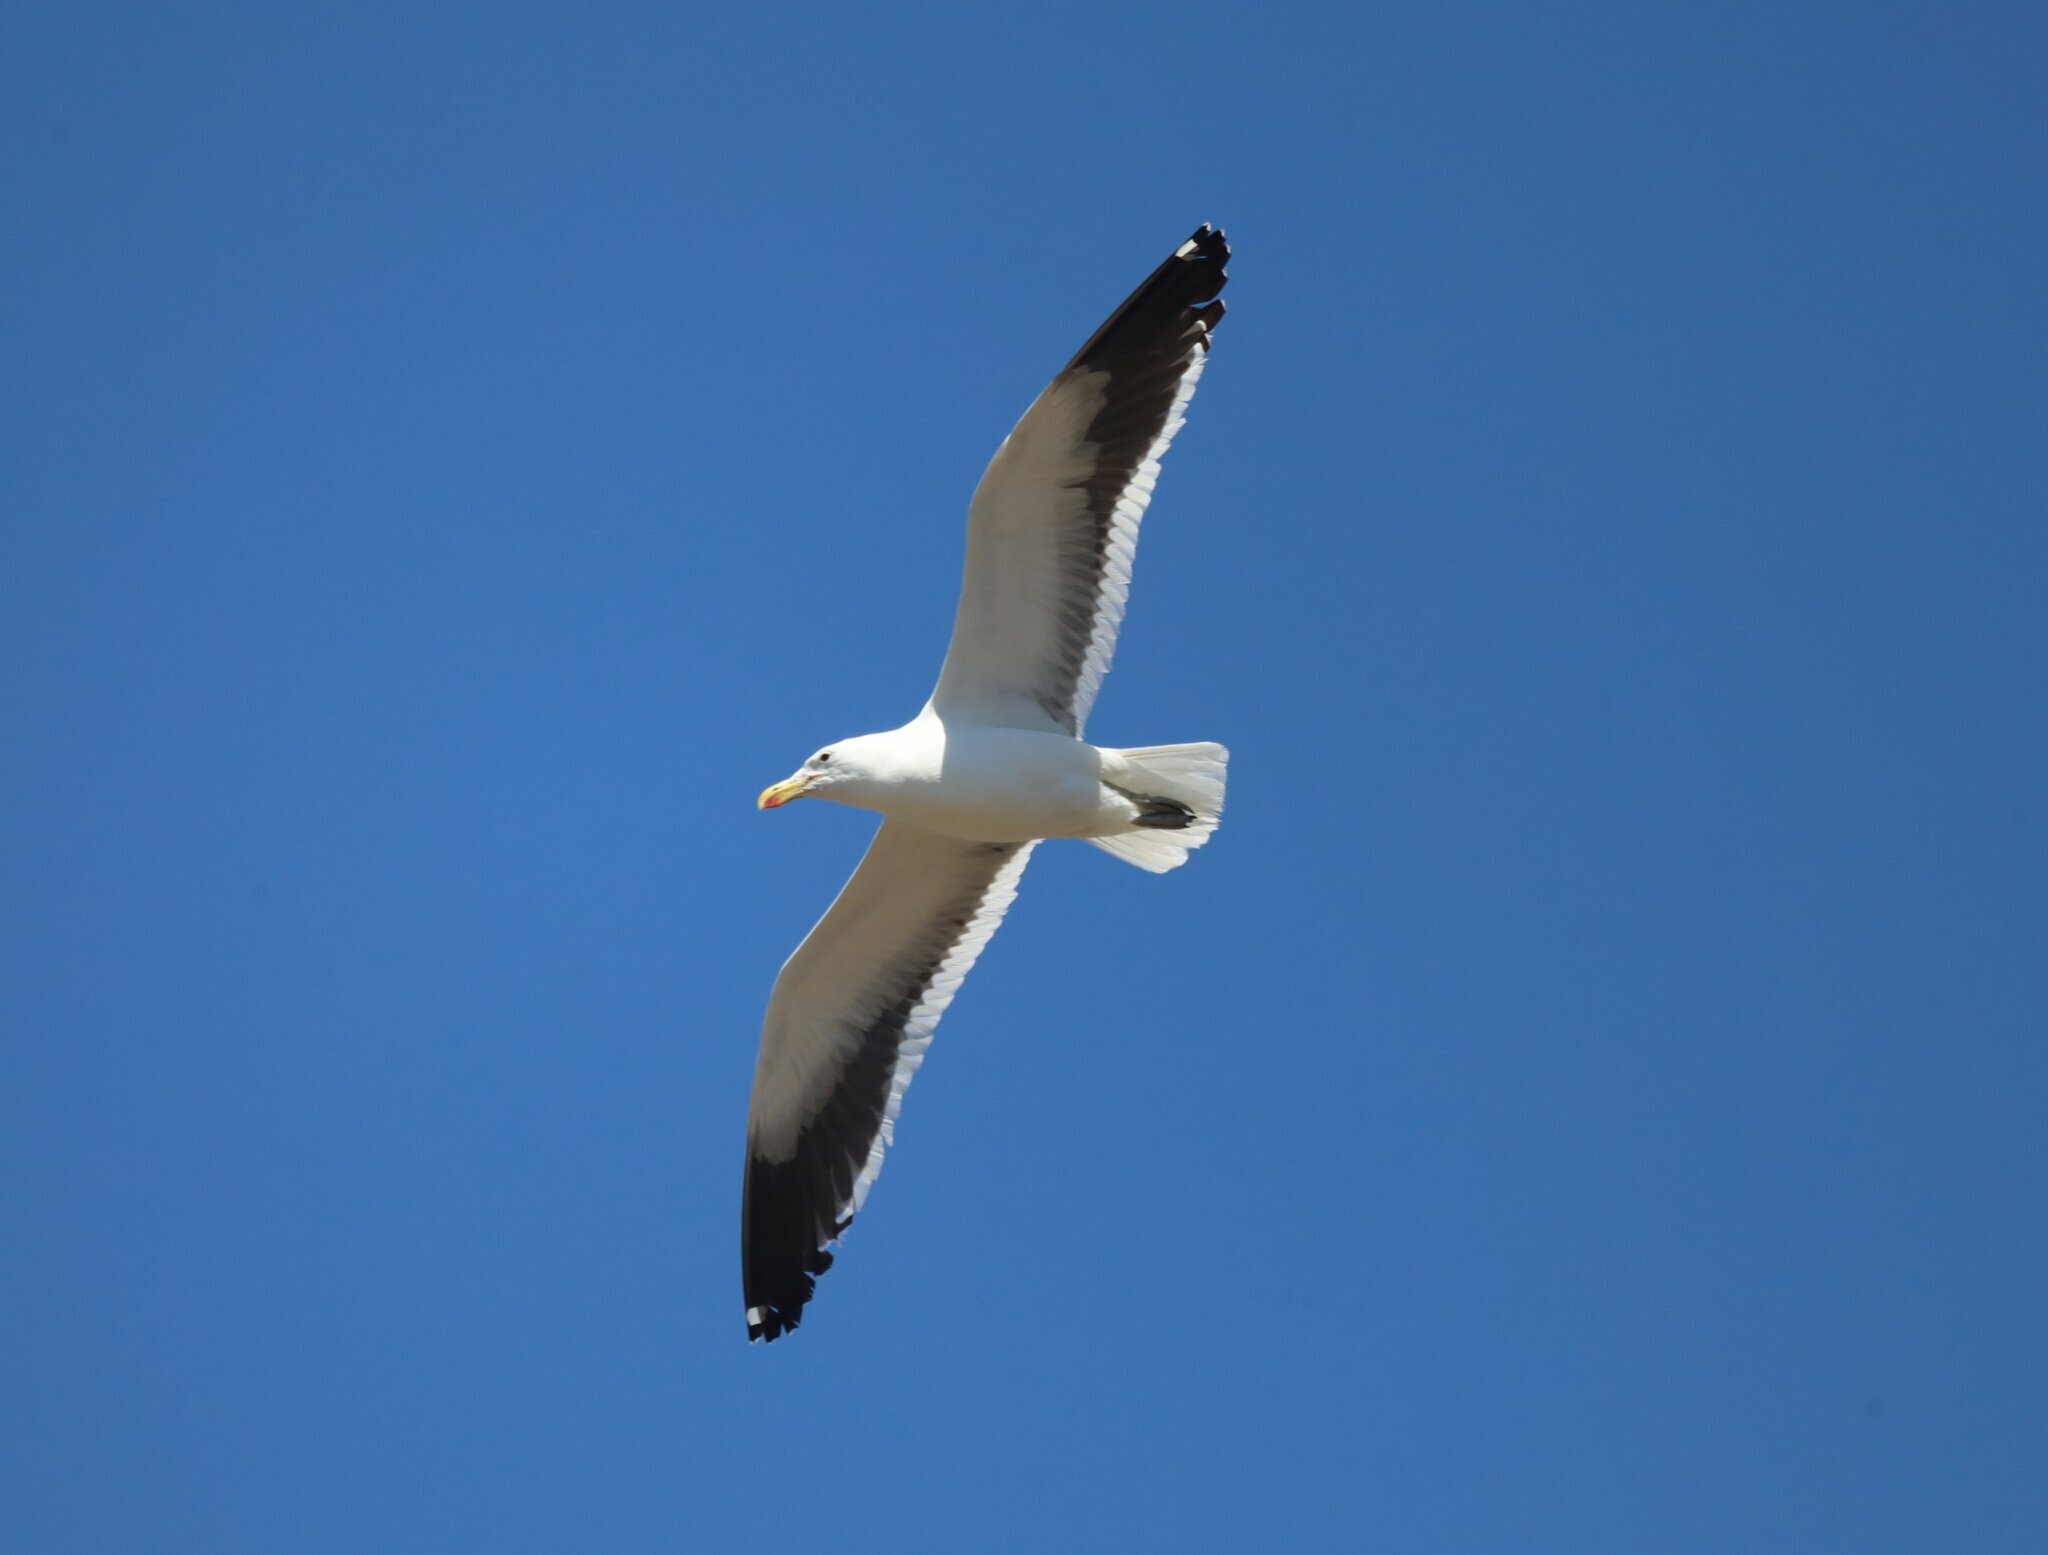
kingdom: Animalia
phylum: Chordata
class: Aves
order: Charadriiformes
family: Laridae
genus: Larus
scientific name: Larus dominicanus
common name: Kelp gull
